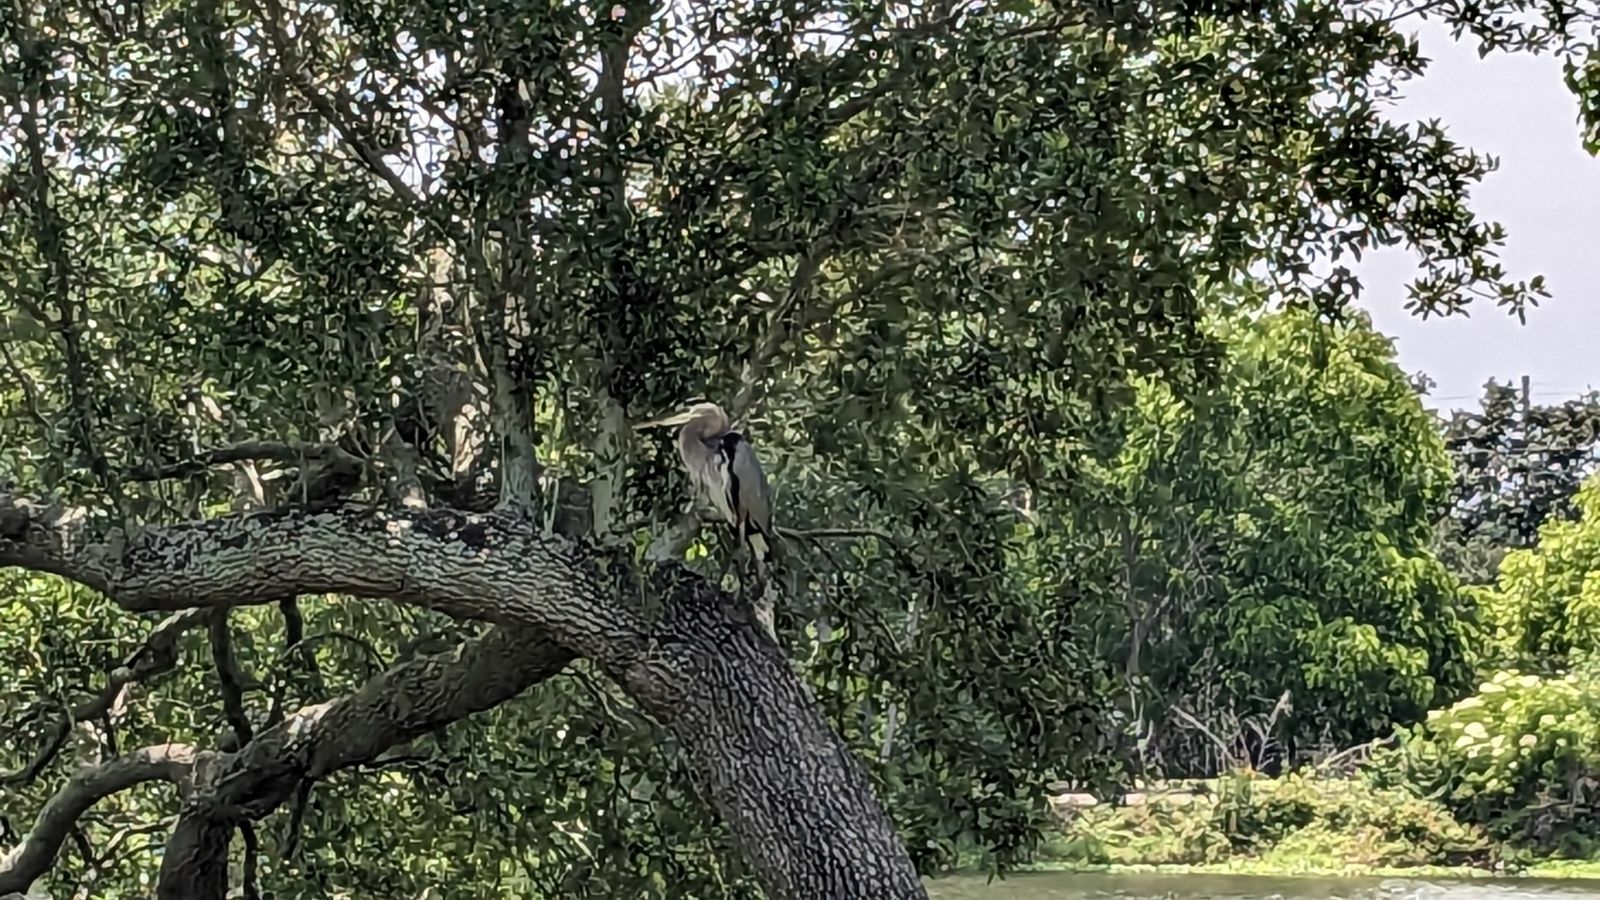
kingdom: Animalia
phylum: Chordata
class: Aves
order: Pelecaniformes
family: Ardeidae
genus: Ardea
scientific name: Ardea herodias
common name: Great blue heron
